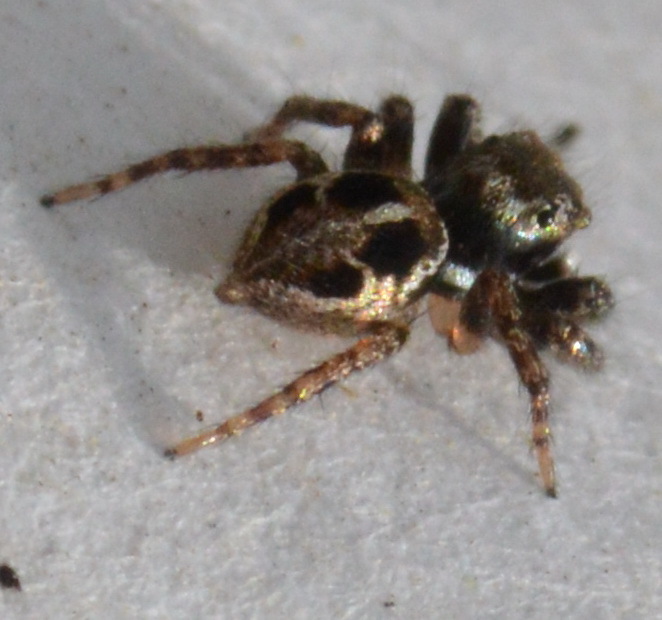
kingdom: Animalia
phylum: Arthropoda
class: Arachnida
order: Araneae
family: Salticidae
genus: Anasaitis
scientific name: Anasaitis canosa
